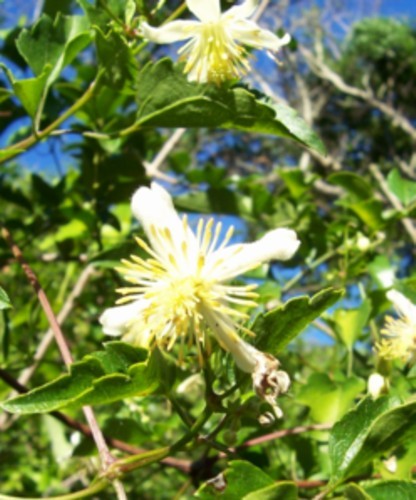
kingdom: Plantae
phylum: Tracheophyta
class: Magnoliopsida
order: Ranunculales
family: Ranunculaceae
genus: Clematis
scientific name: Clematis brachiata
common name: Traveler's-joy
